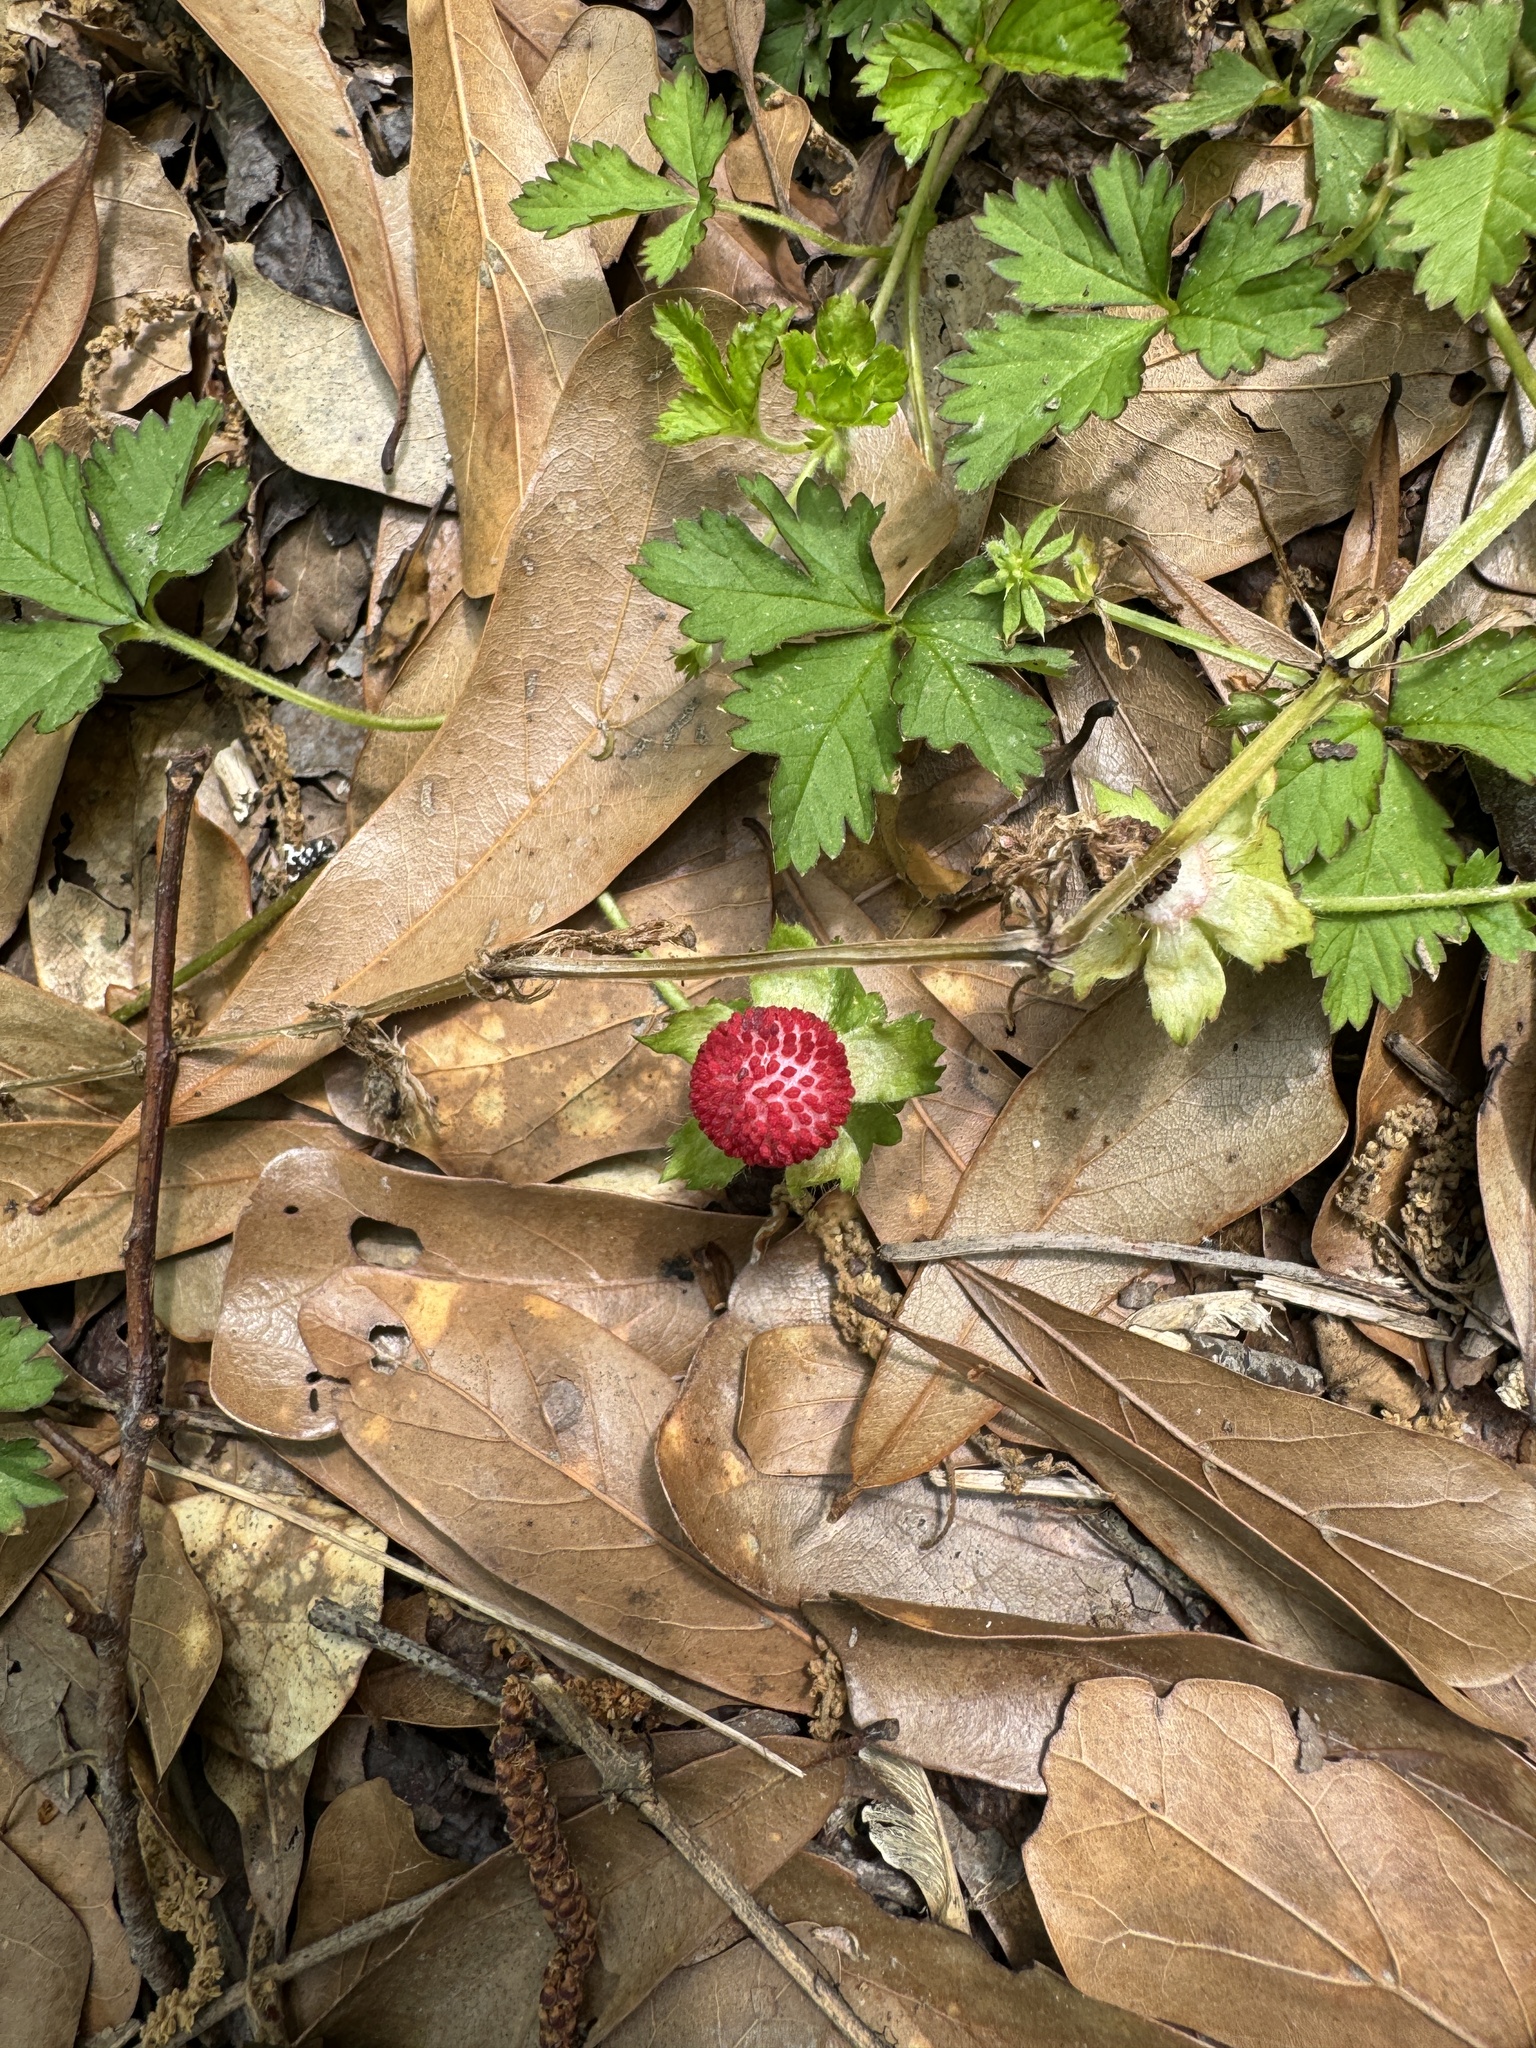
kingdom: Plantae
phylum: Tracheophyta
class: Magnoliopsida
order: Rosales
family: Rosaceae
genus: Potentilla
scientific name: Potentilla indica
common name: Yellow-flowered strawberry
